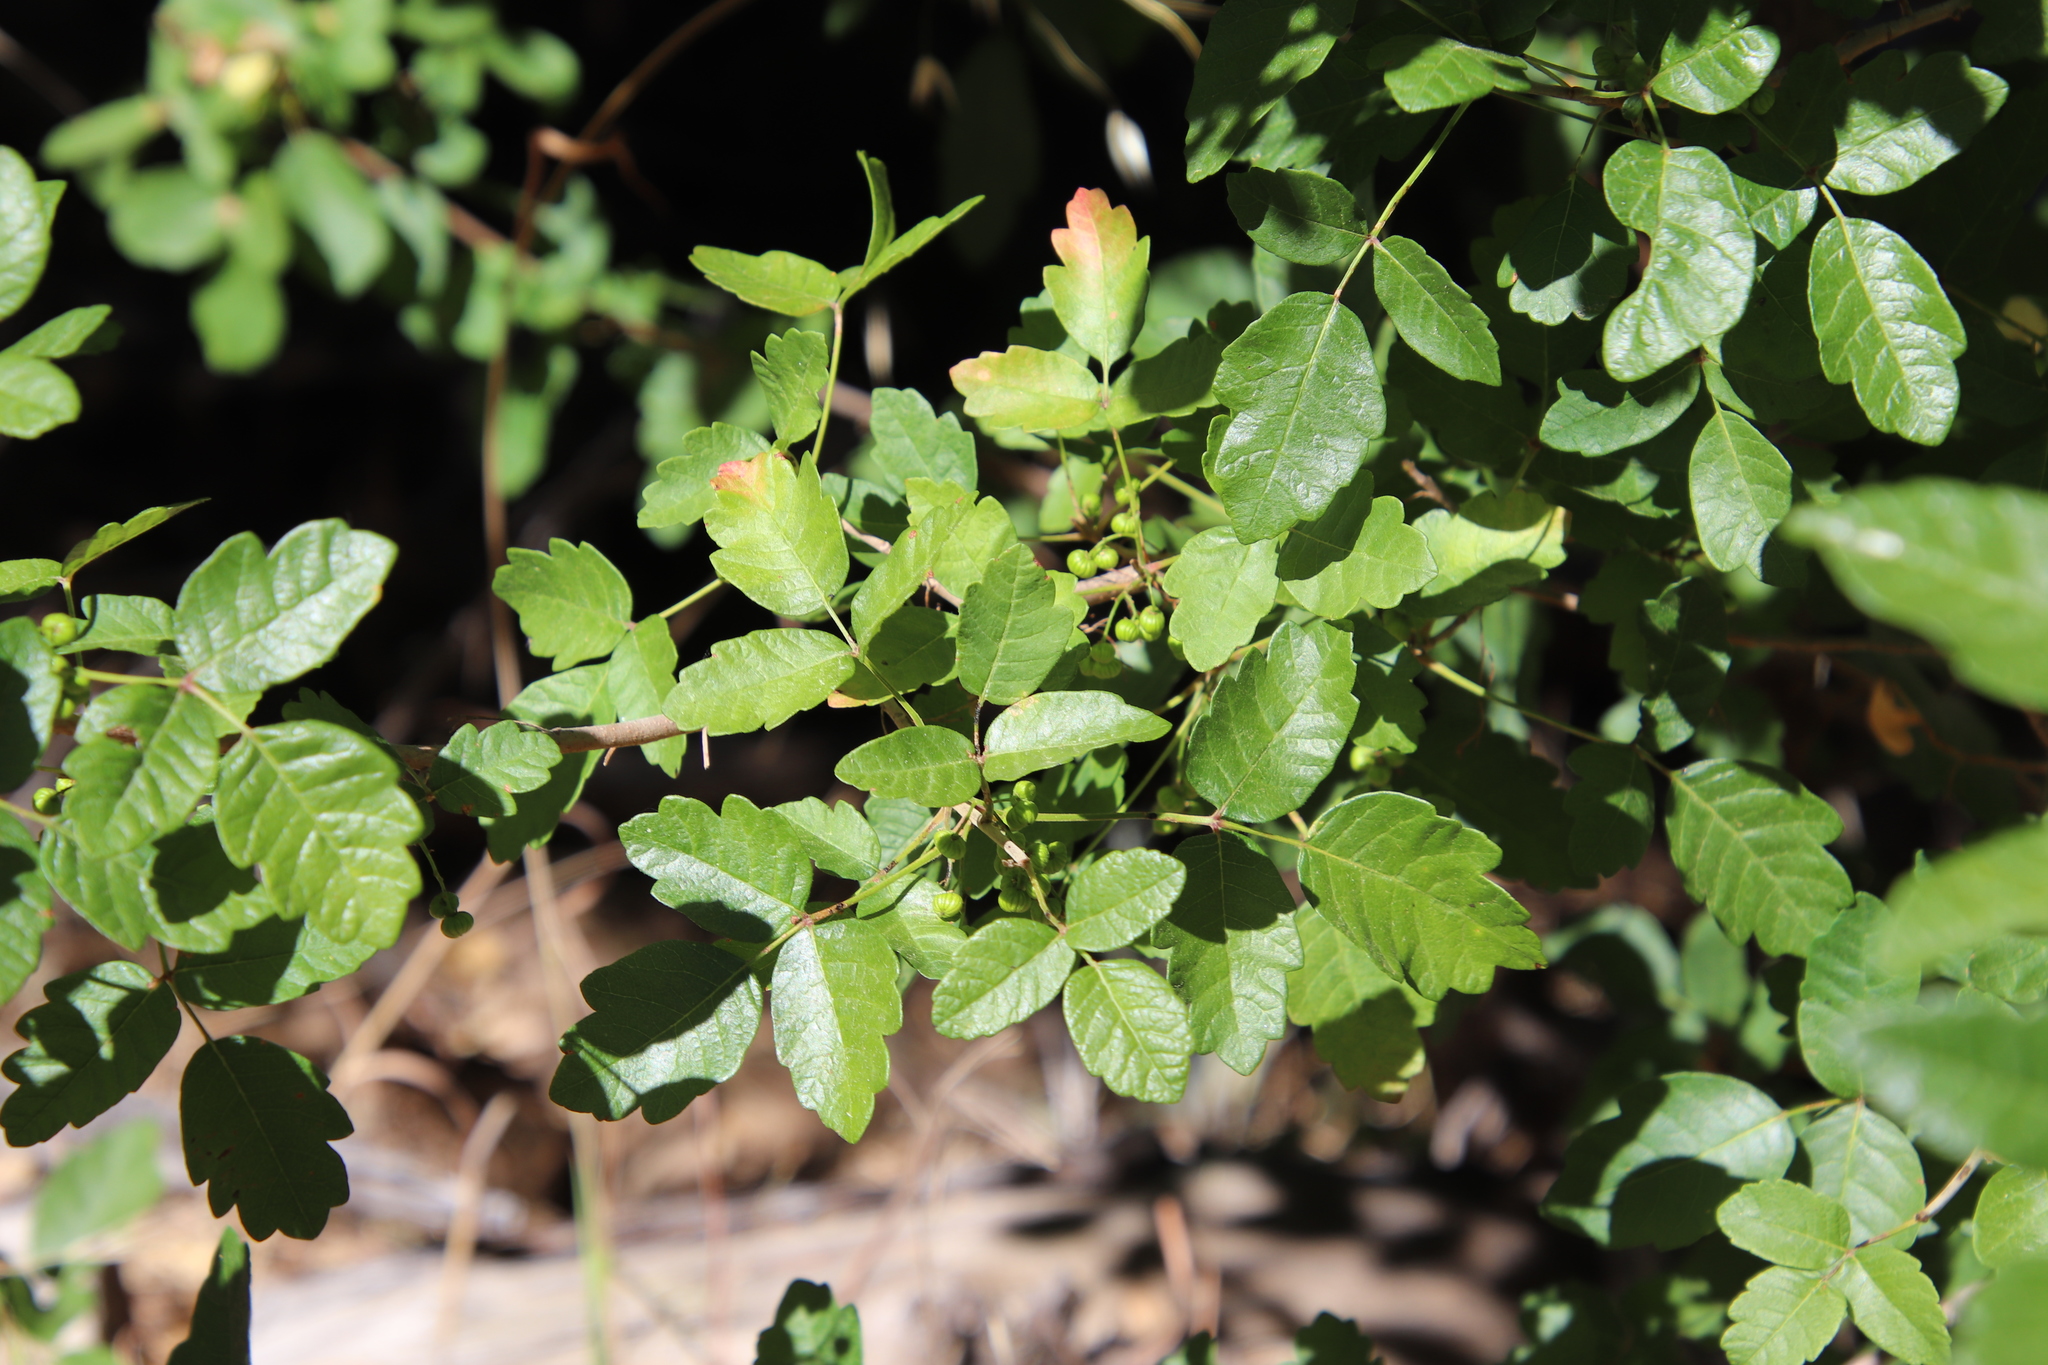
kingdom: Plantae
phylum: Tracheophyta
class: Magnoliopsida
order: Sapindales
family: Anacardiaceae
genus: Toxicodendron
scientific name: Toxicodendron diversilobum
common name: Pacific poison-oak
